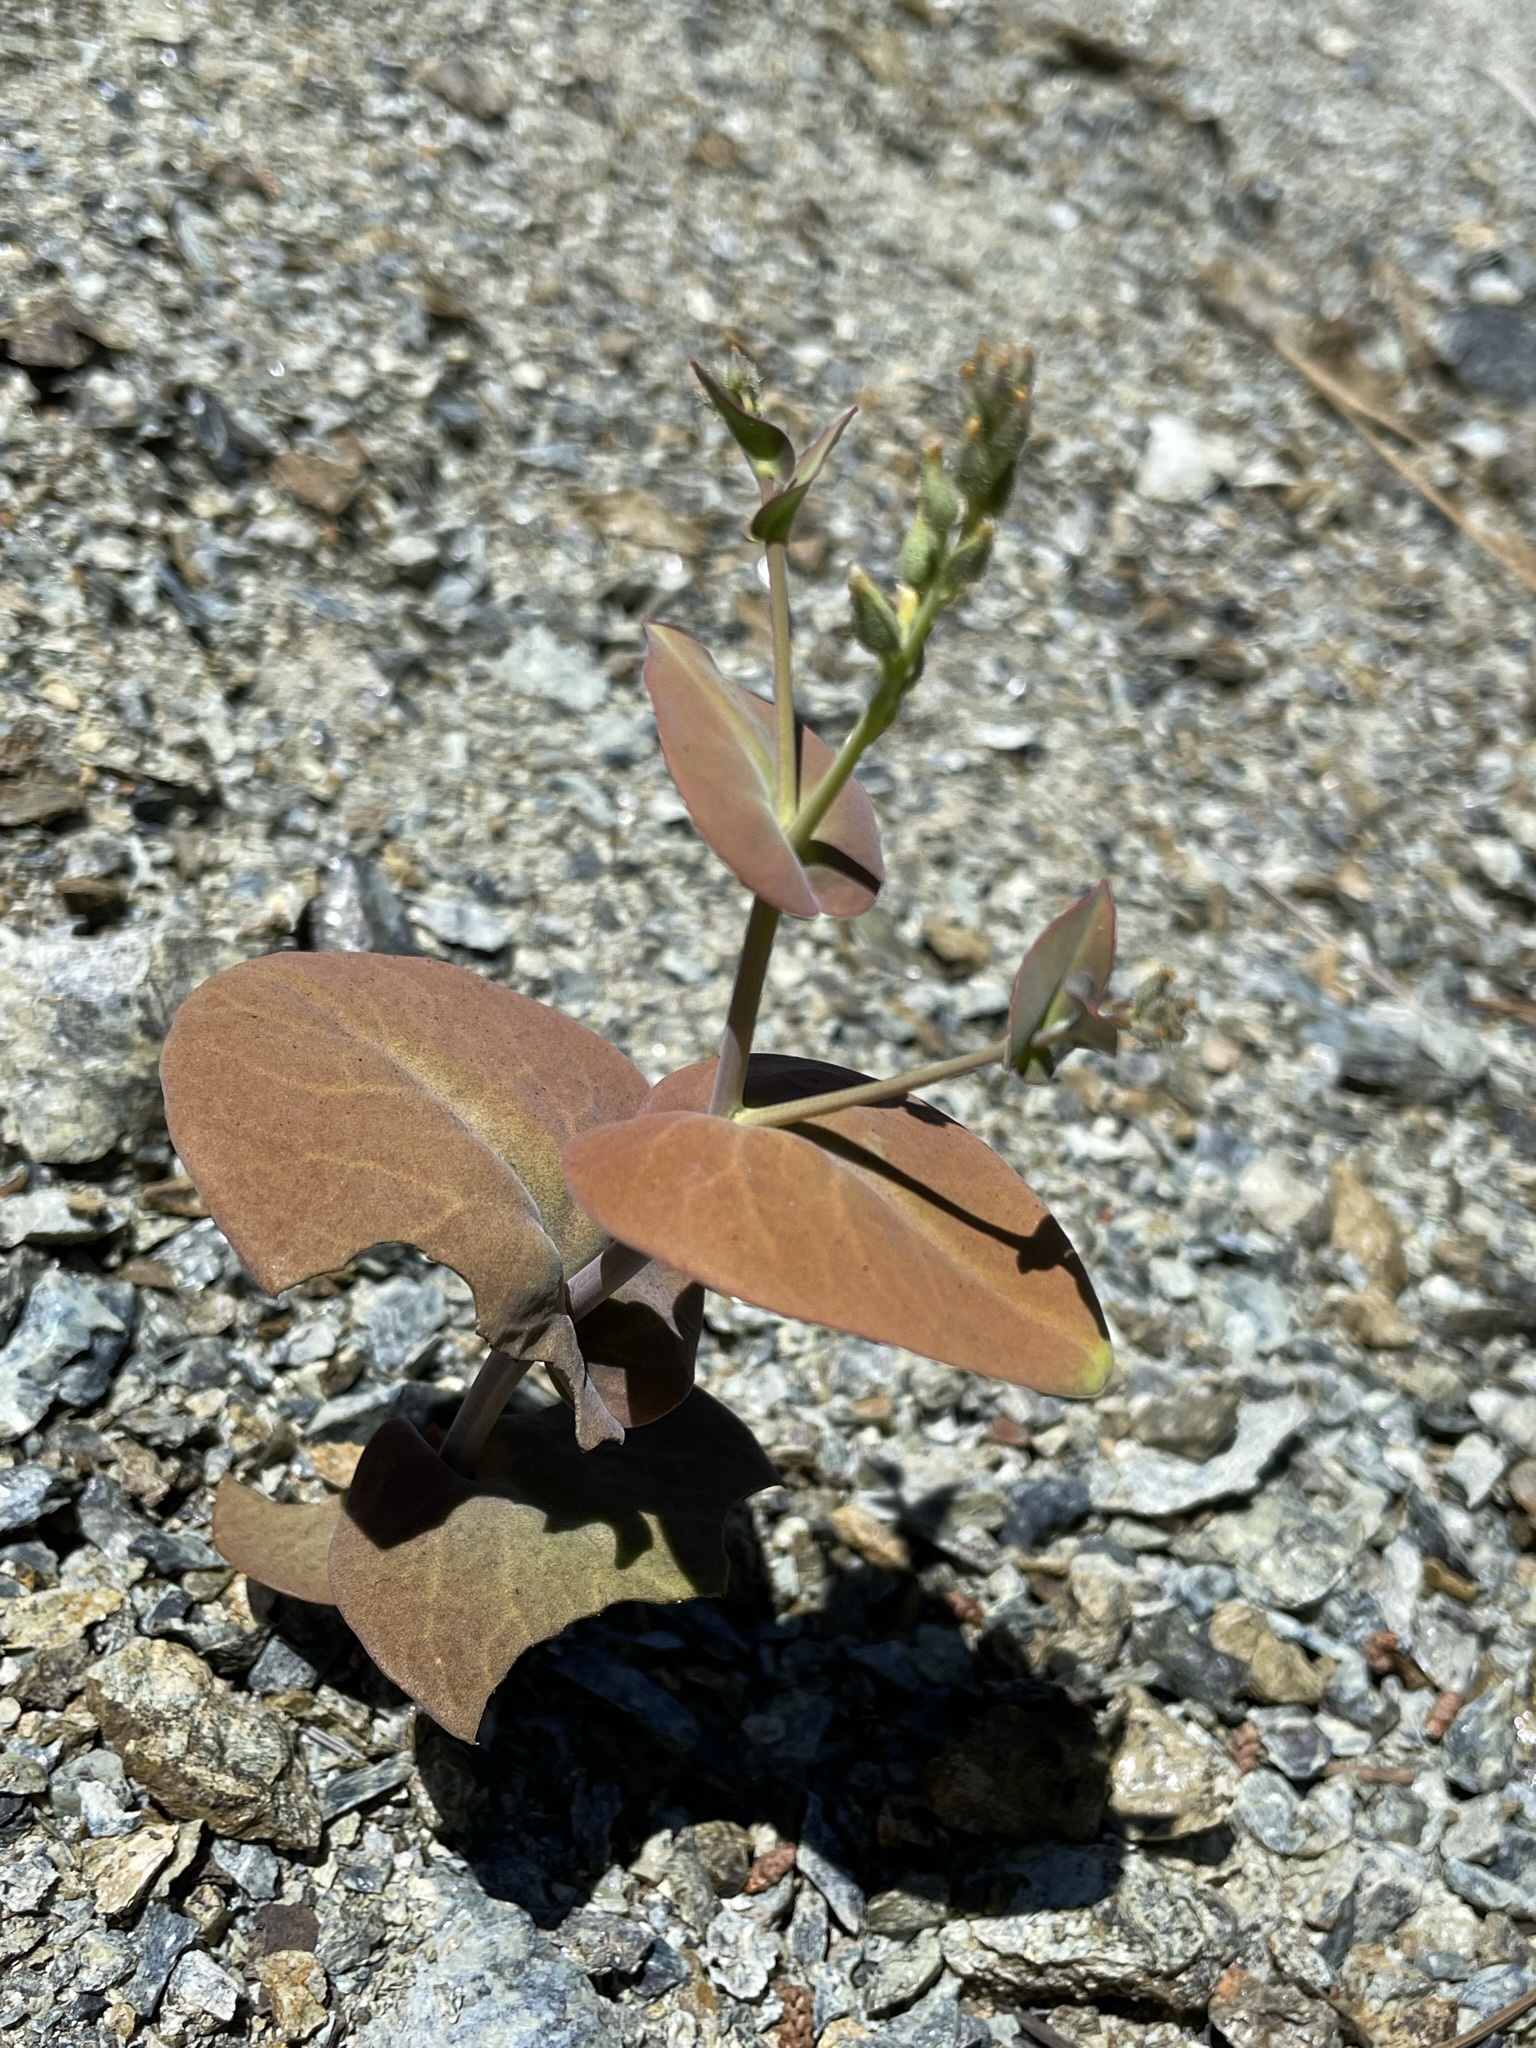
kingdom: Plantae
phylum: Tracheophyta
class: Magnoliopsida
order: Brassicales
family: Brassicaceae
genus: Streptanthus
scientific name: Streptanthus drepanoides
